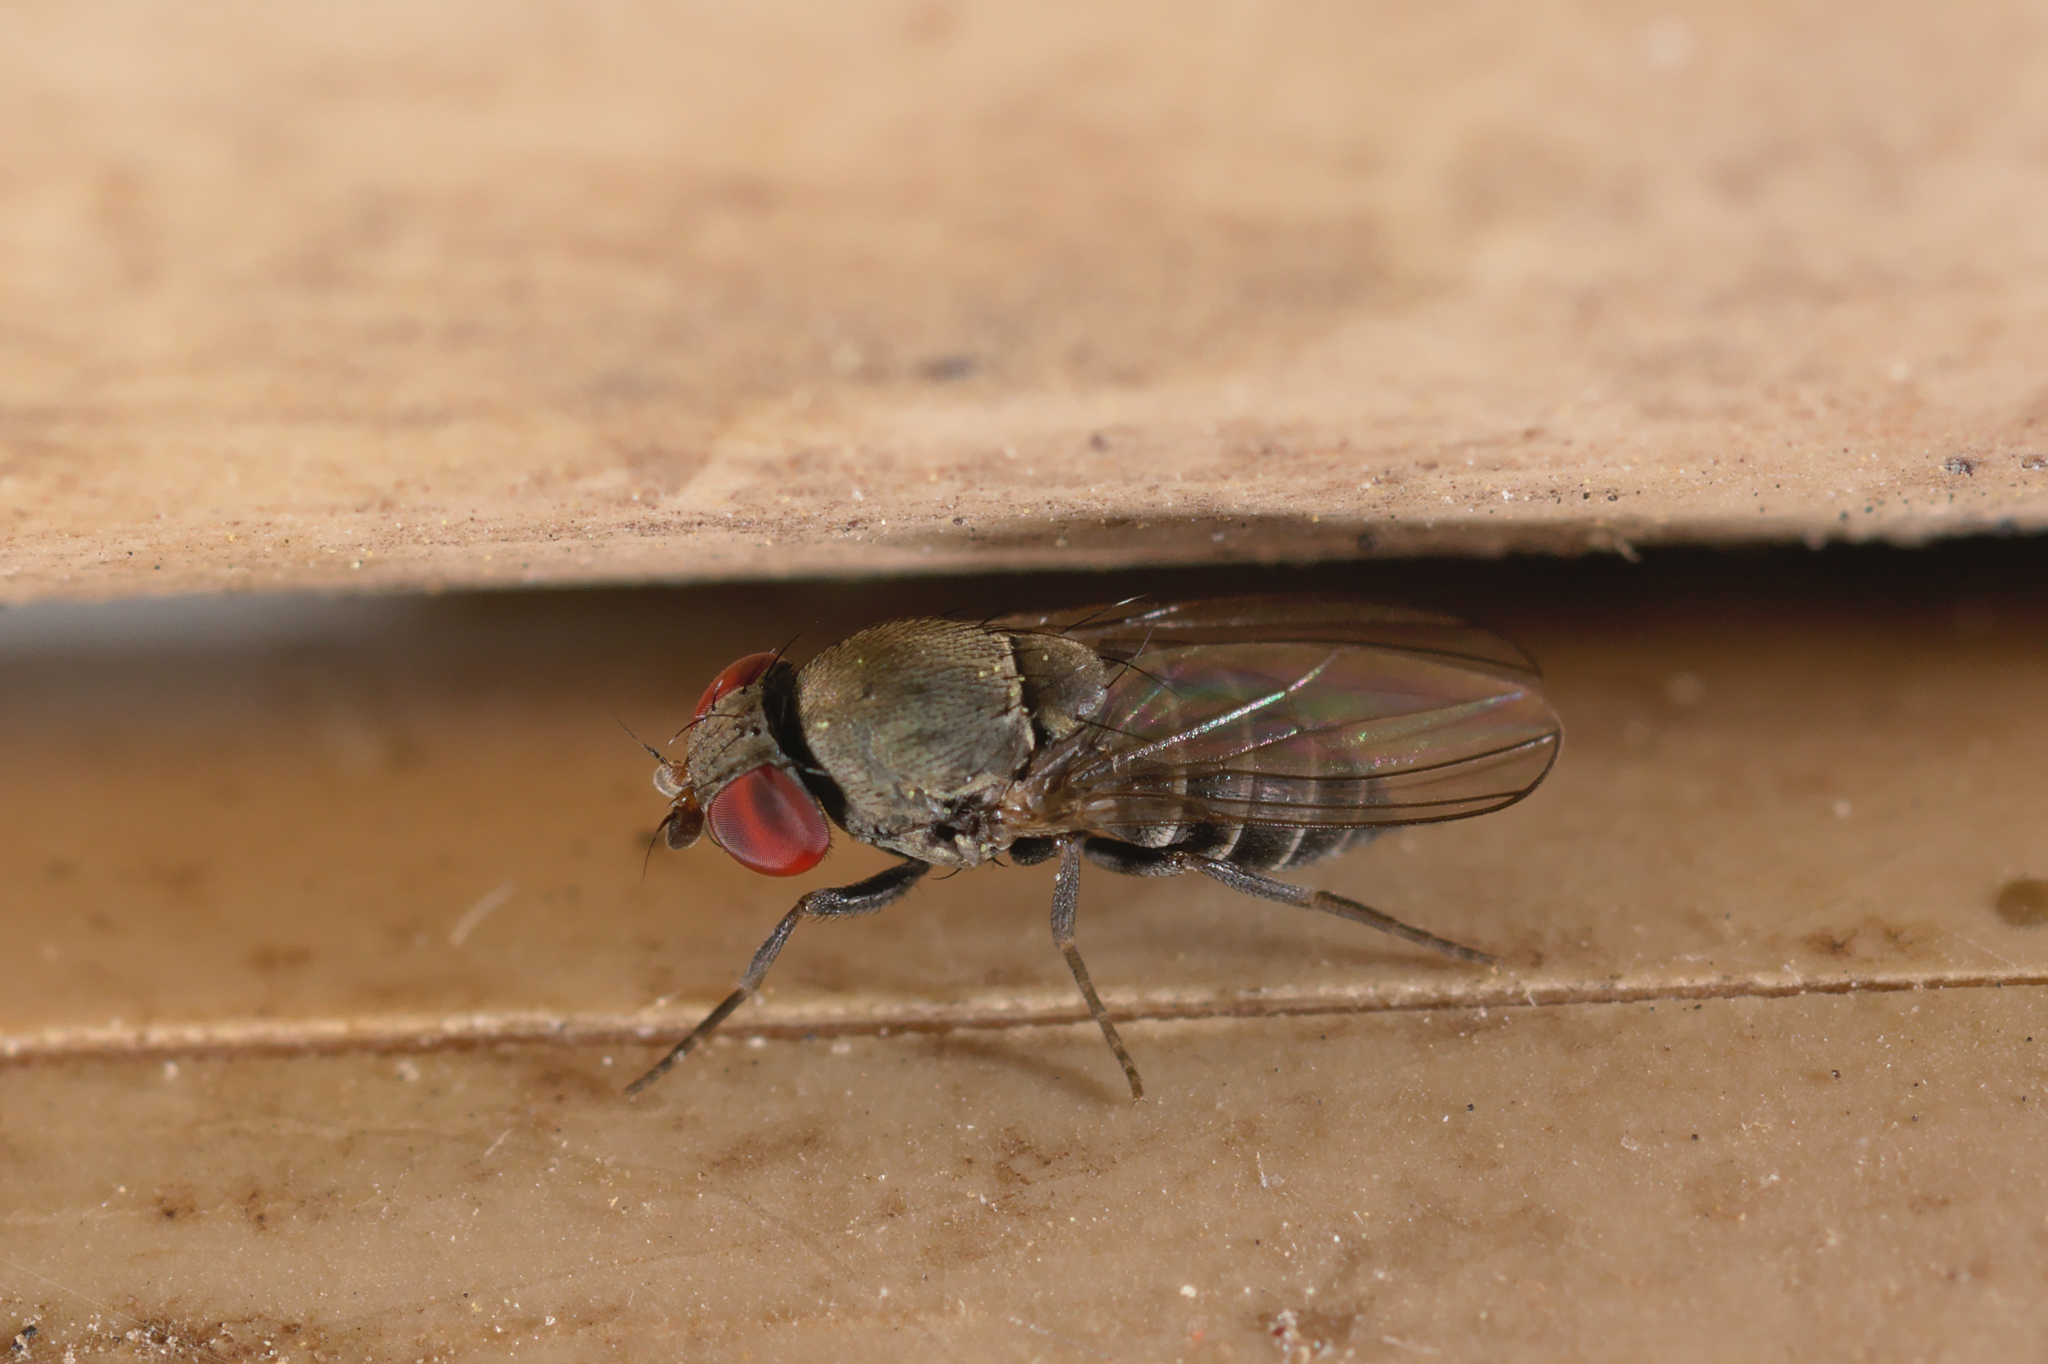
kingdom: Animalia
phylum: Arthropoda
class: Insecta
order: Diptera
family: Drosophilidae
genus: Cacoxenus
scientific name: Cacoxenus indagator
